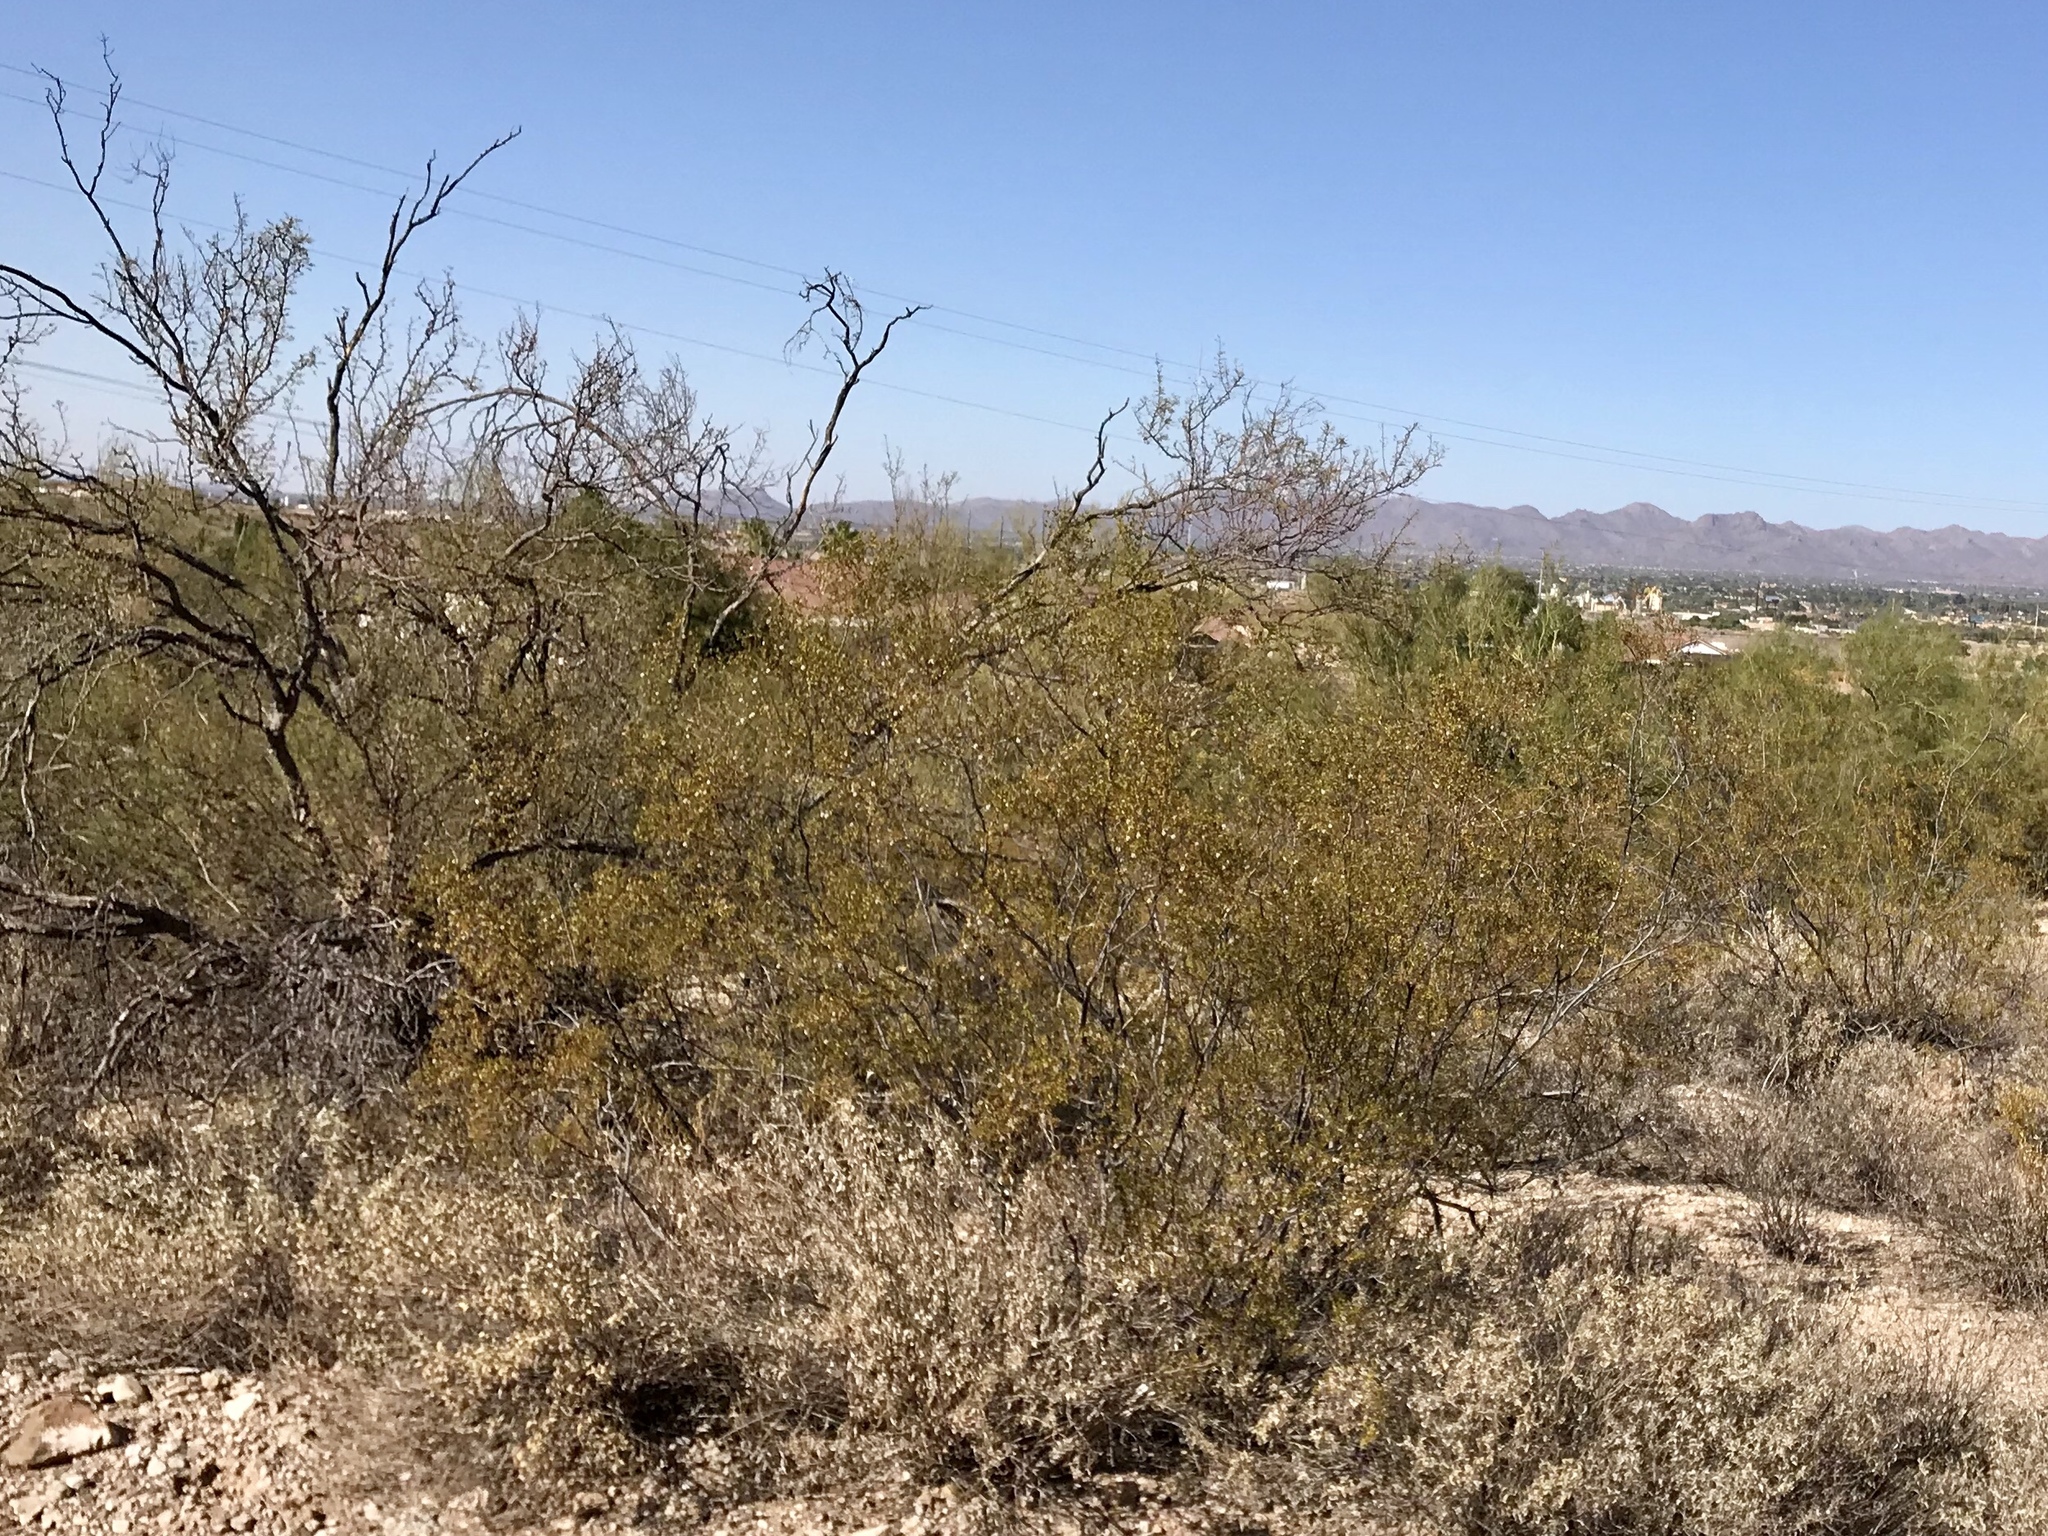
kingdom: Plantae
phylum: Tracheophyta
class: Magnoliopsida
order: Zygophyllales
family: Zygophyllaceae
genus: Larrea
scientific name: Larrea tridentata
